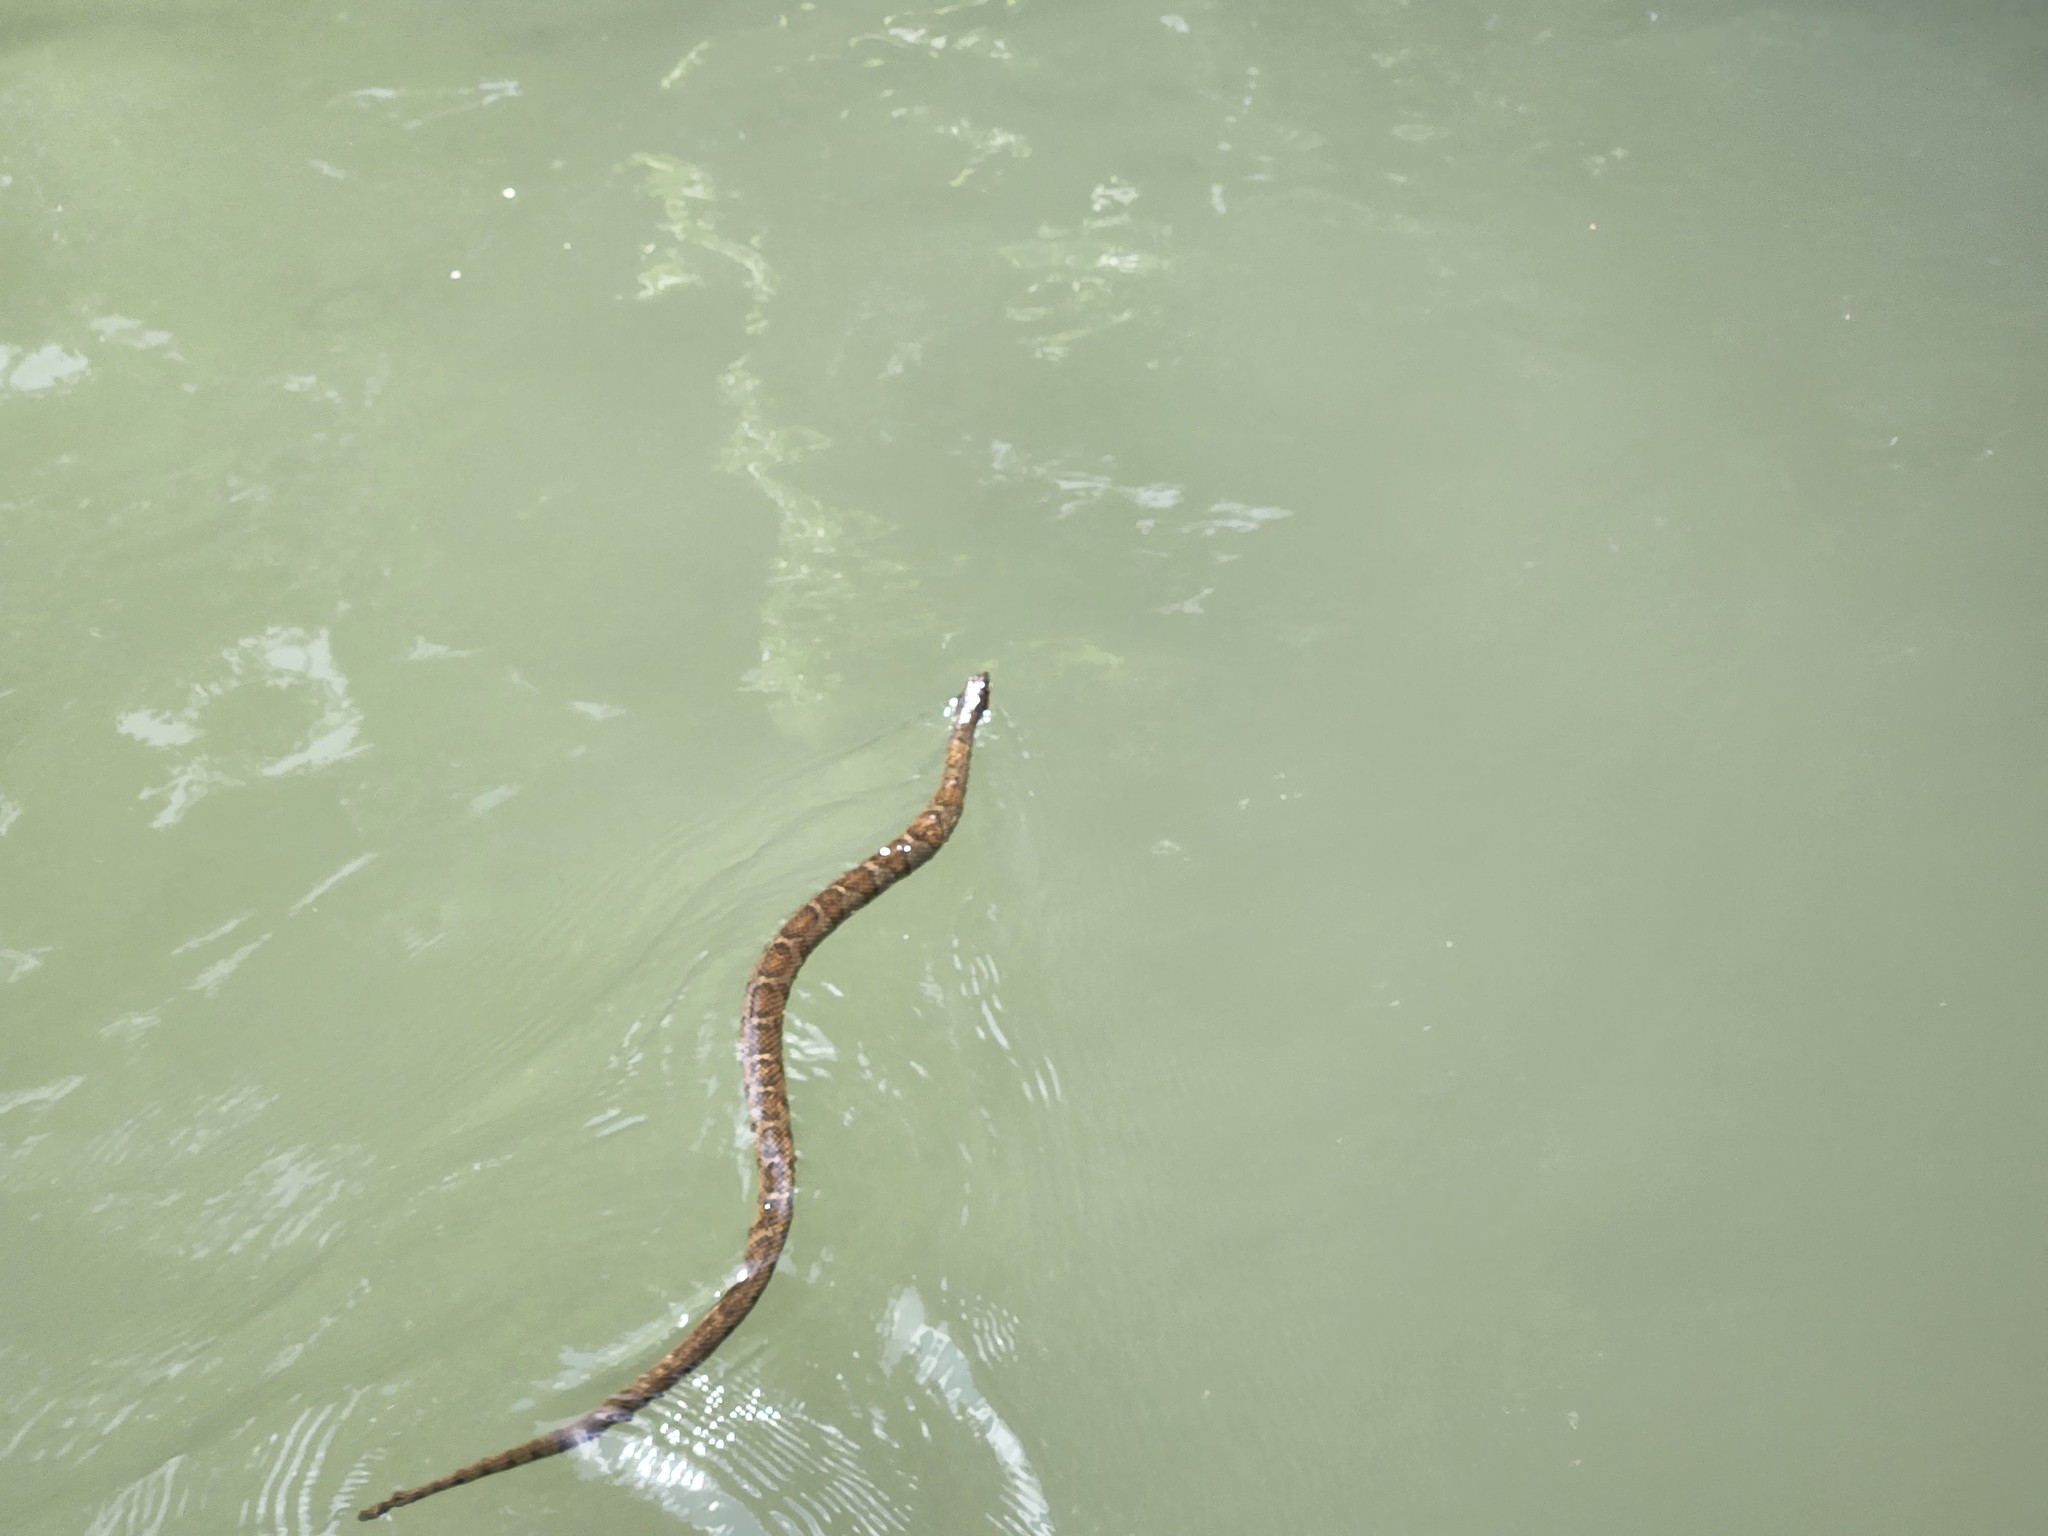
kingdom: Animalia
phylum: Chordata
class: Squamata
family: Colubridae
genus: Nerodia
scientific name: Nerodia sipedon
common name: Northern water snake
